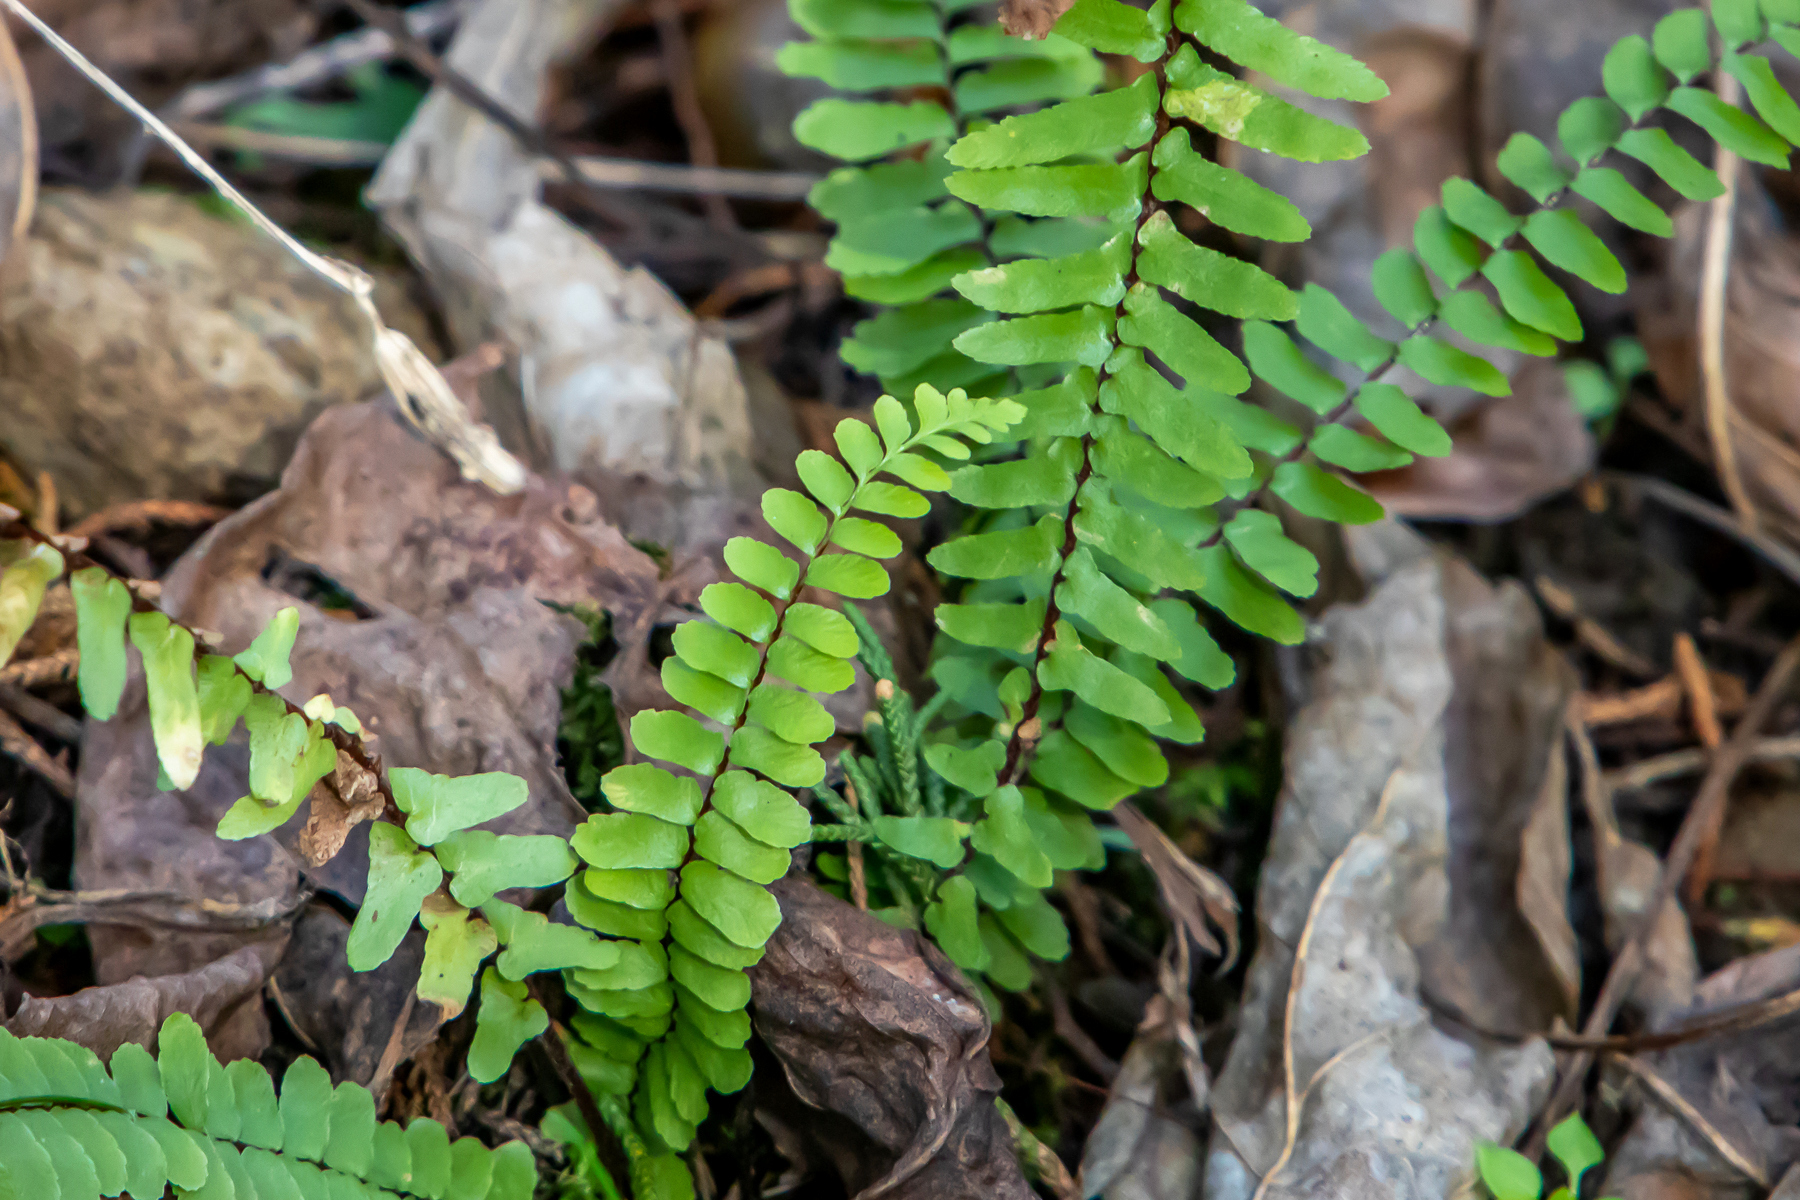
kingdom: Plantae
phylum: Tracheophyta
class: Polypodiopsida
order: Polypodiales
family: Aspleniaceae
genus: Asplenium
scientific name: Asplenium platyneuron
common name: Ebony spleenwort
